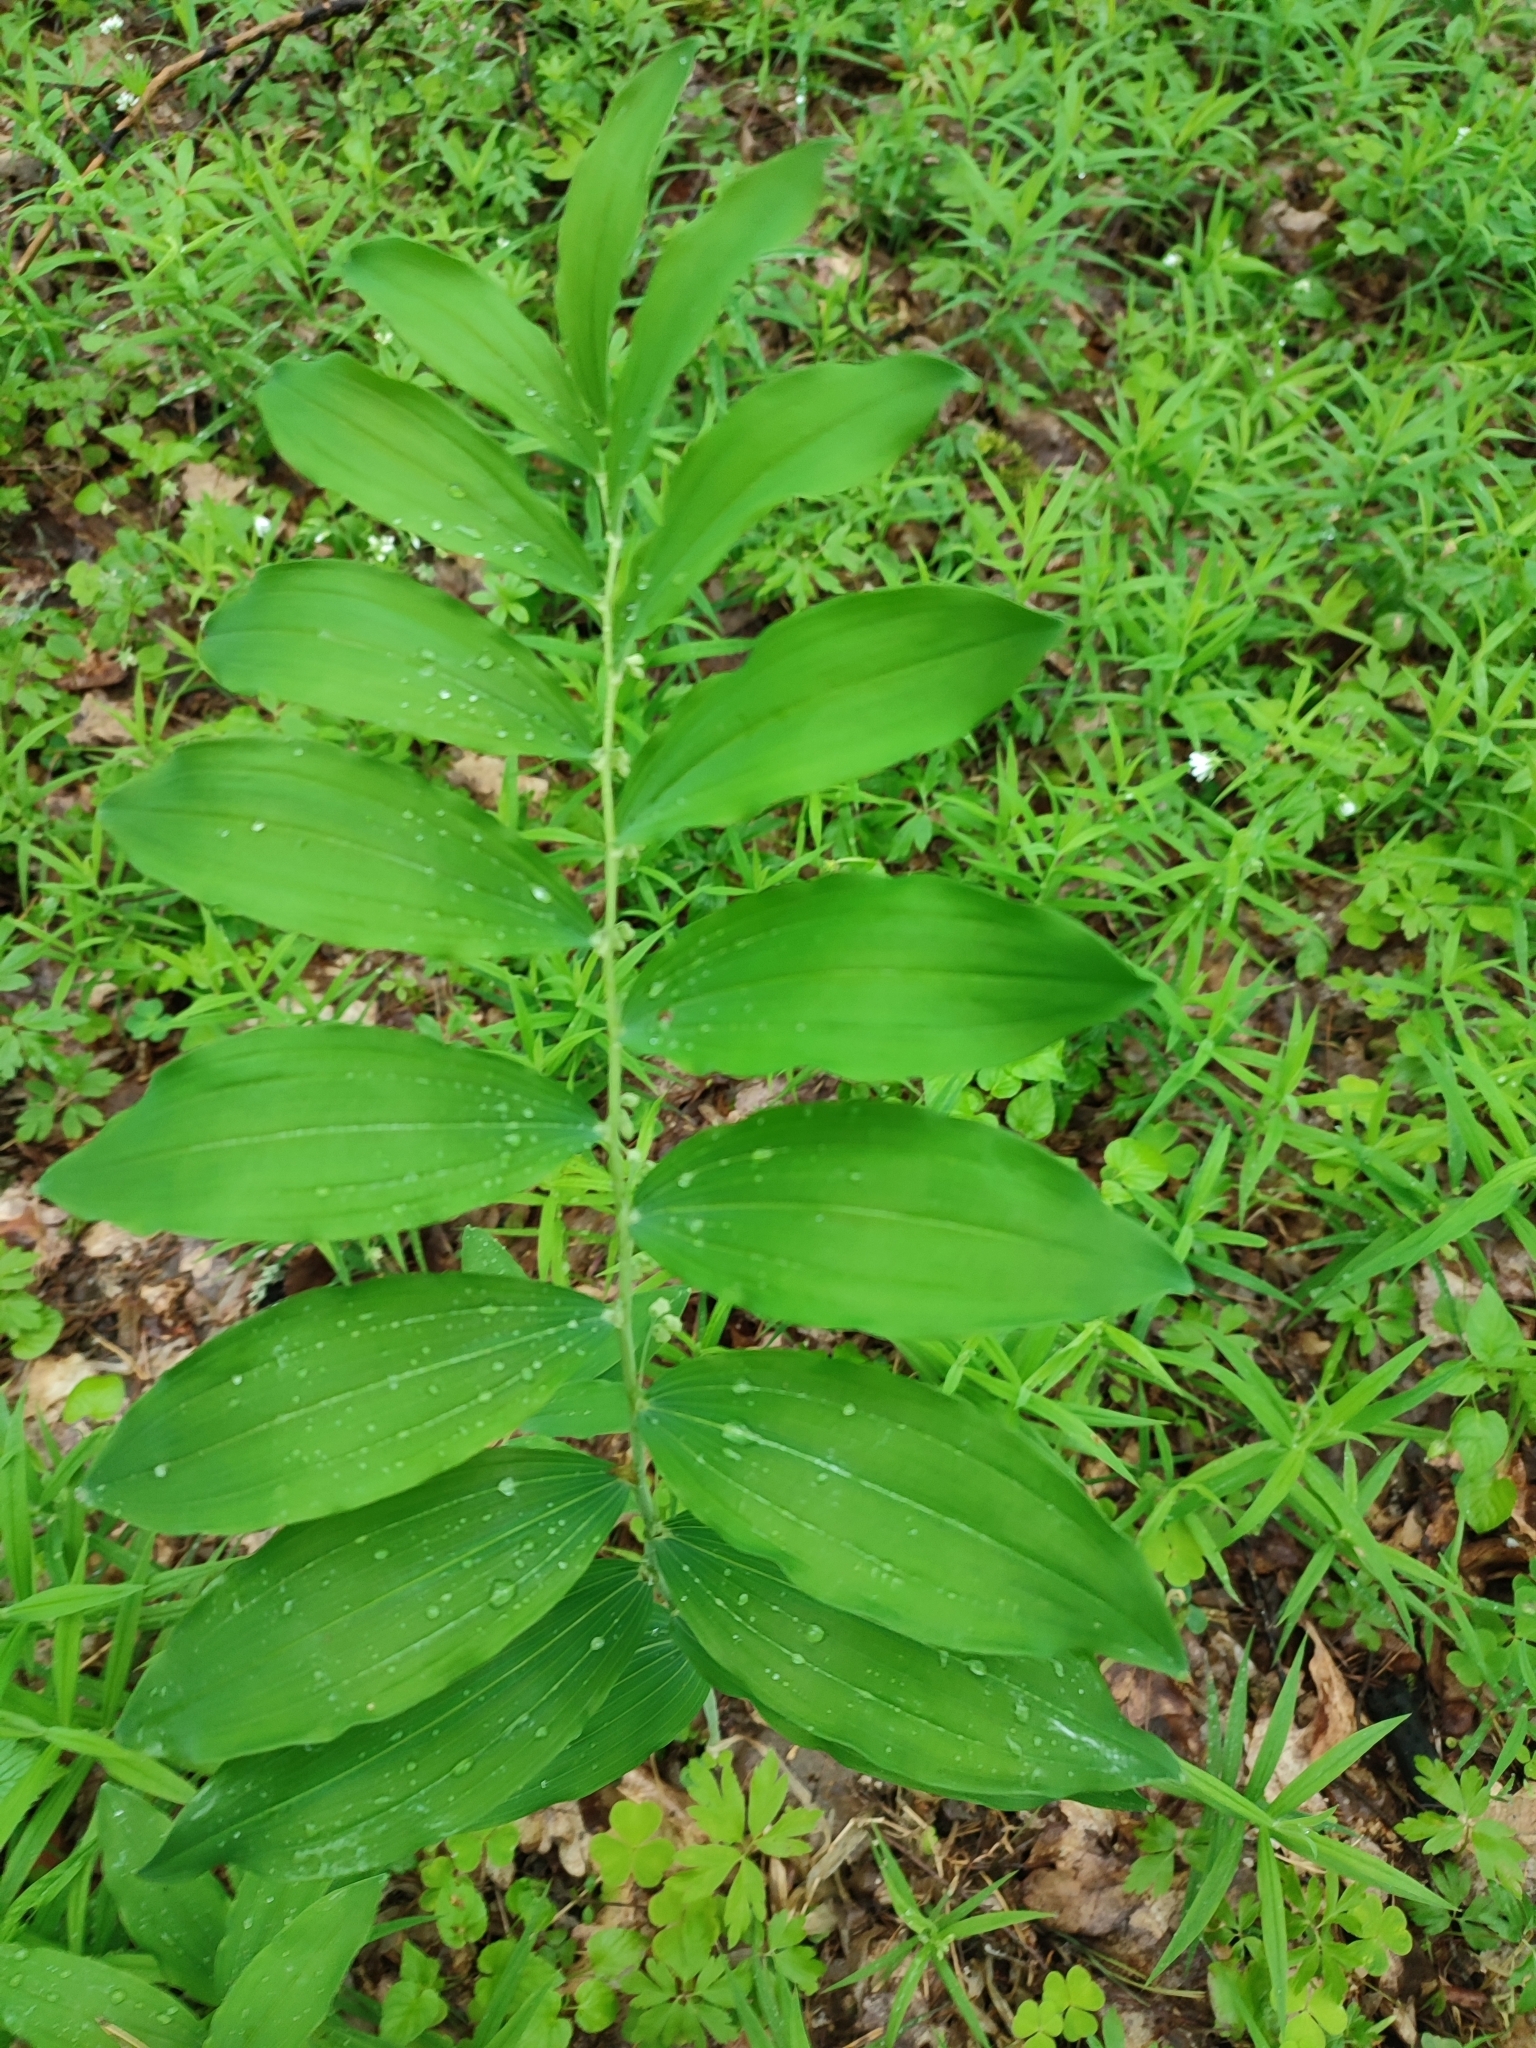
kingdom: Plantae
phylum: Tracheophyta
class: Liliopsida
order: Asparagales
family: Asparagaceae
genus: Polygonatum
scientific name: Polygonatum multiflorum
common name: Solomon's-seal
